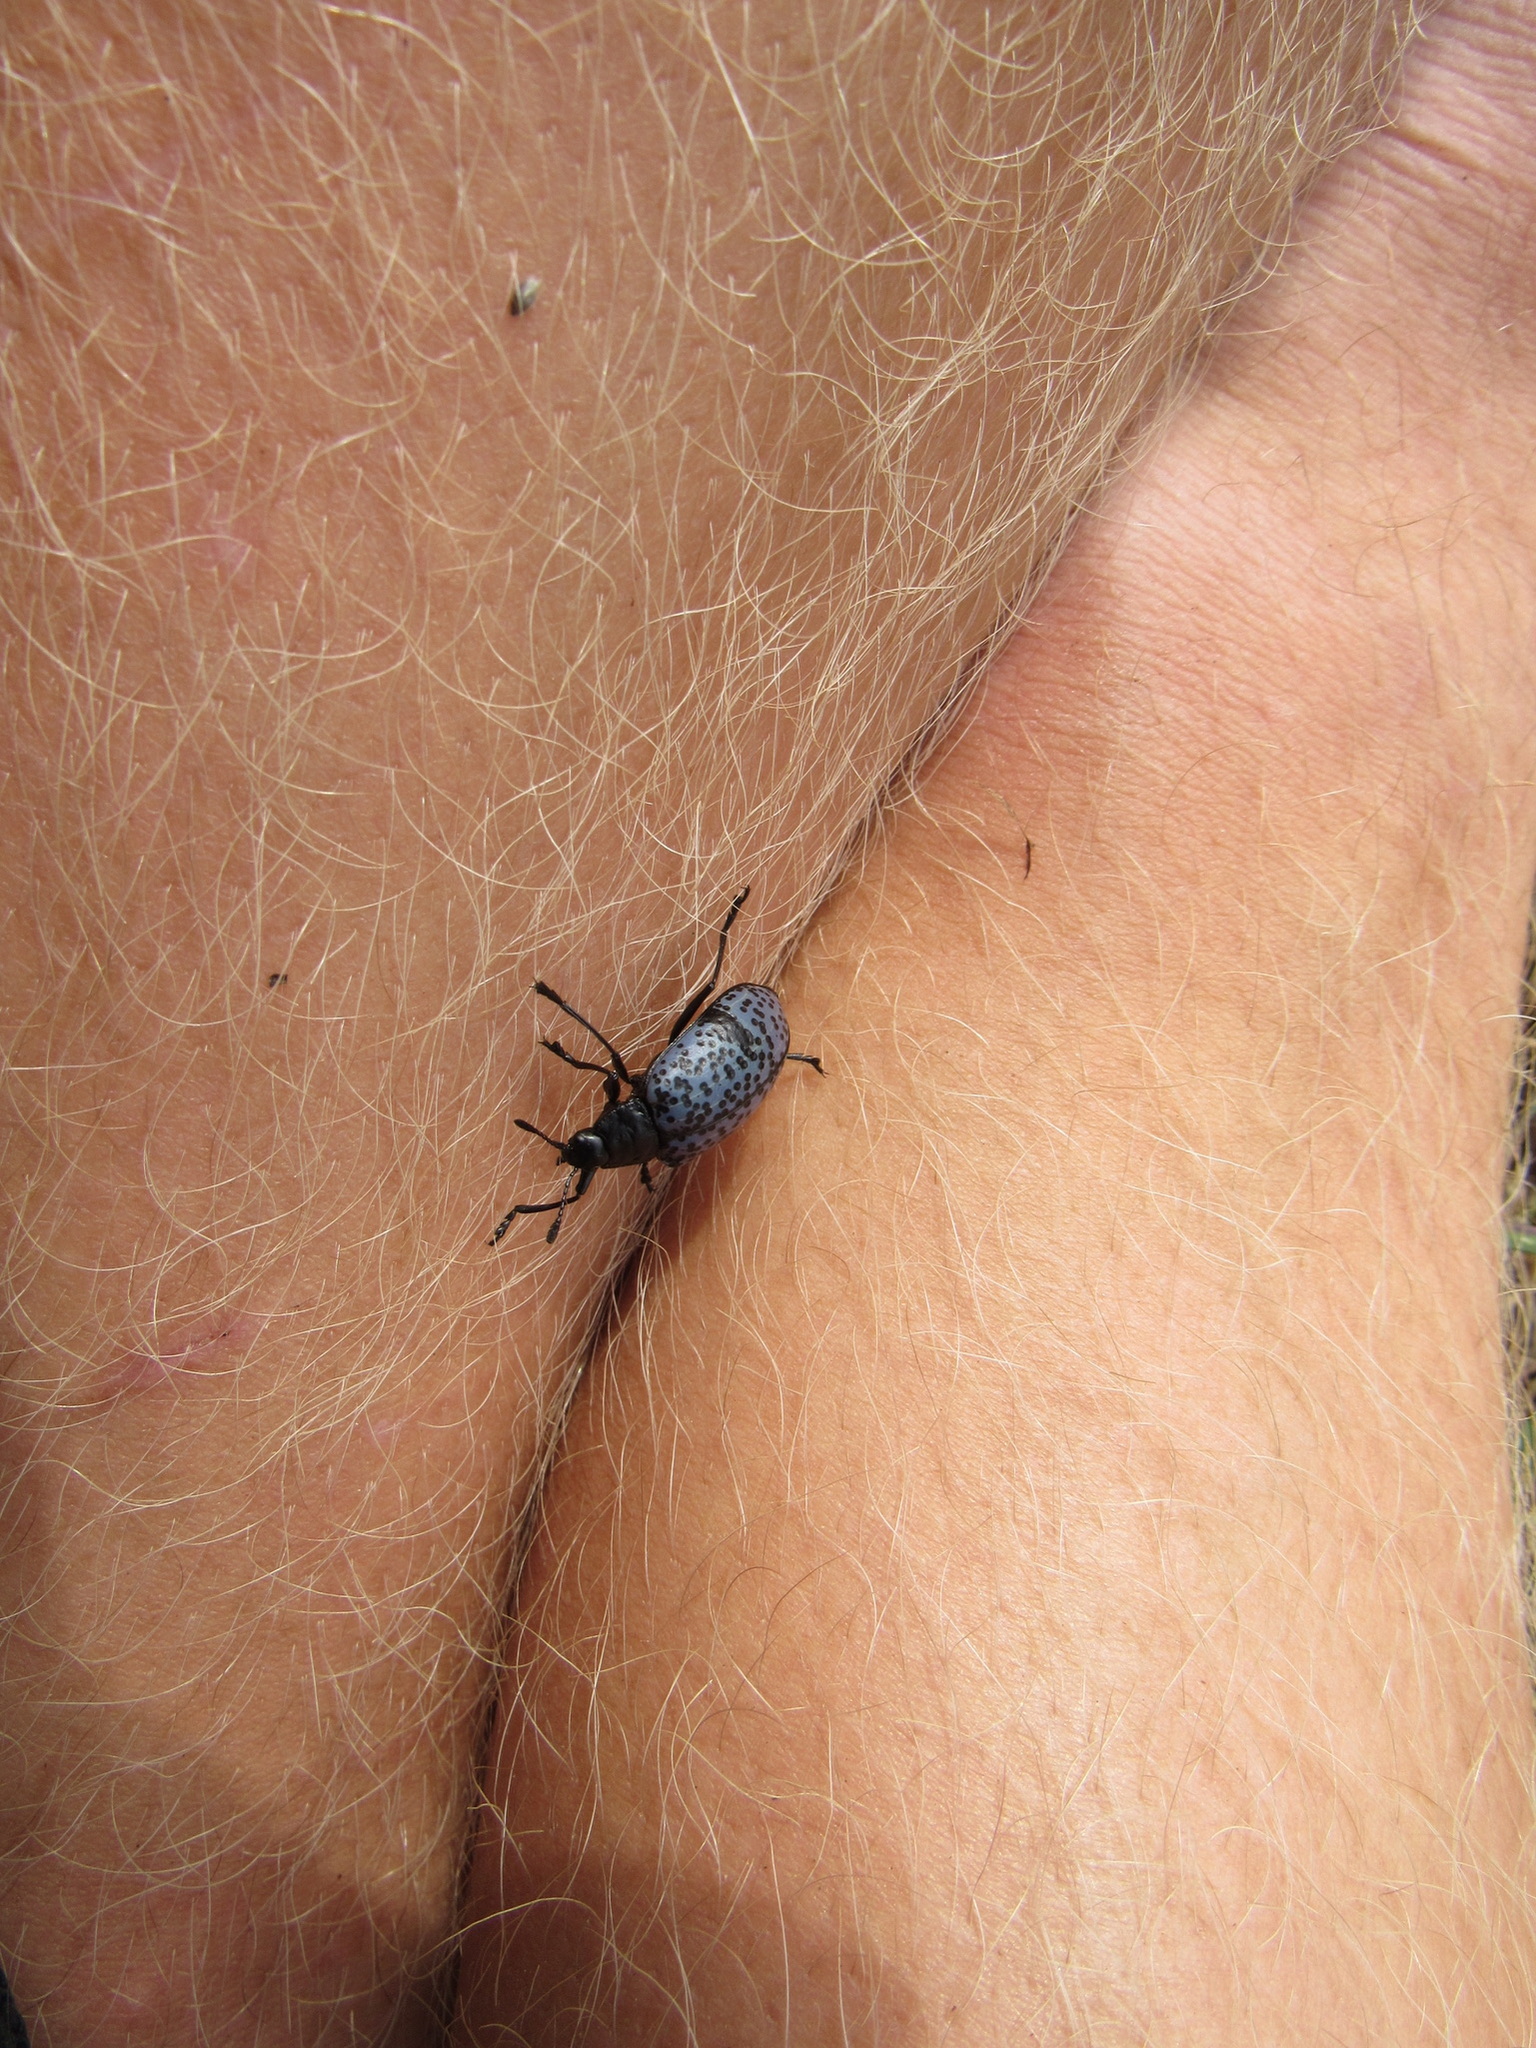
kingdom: Animalia
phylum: Arthropoda
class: Insecta
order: Coleoptera
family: Erotylidae
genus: Gibbifer
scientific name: Gibbifer californicus
